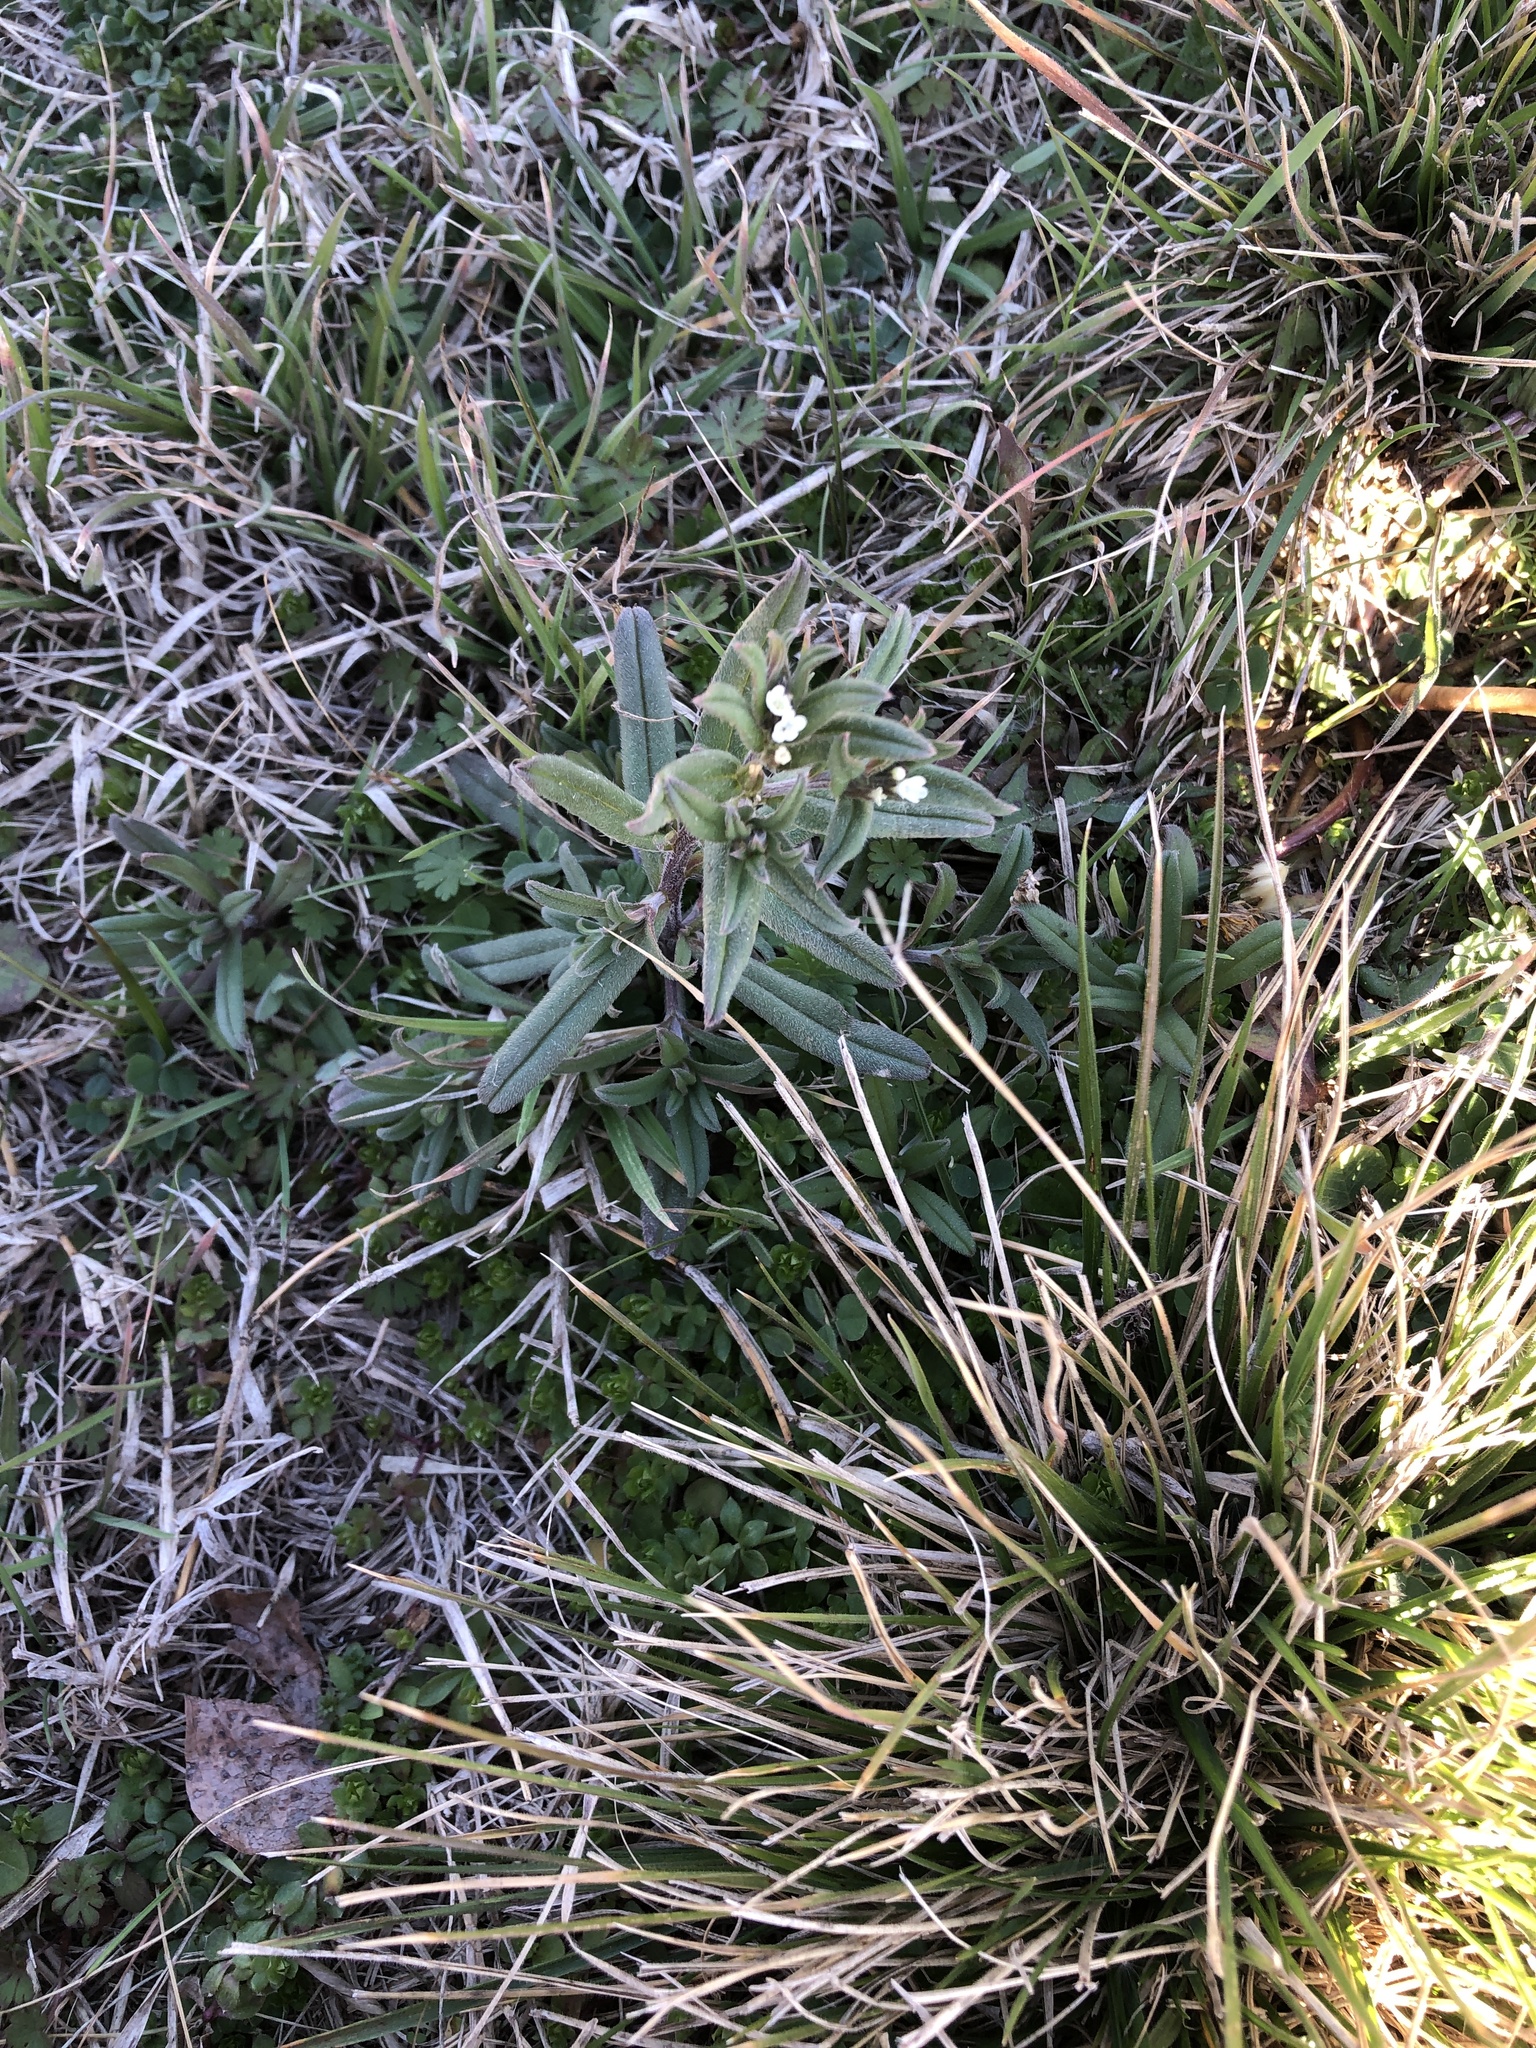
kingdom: Plantae
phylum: Tracheophyta
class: Magnoliopsida
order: Boraginales
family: Boraginaceae
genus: Buglossoides
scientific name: Buglossoides arvensis
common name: Corn gromwell
